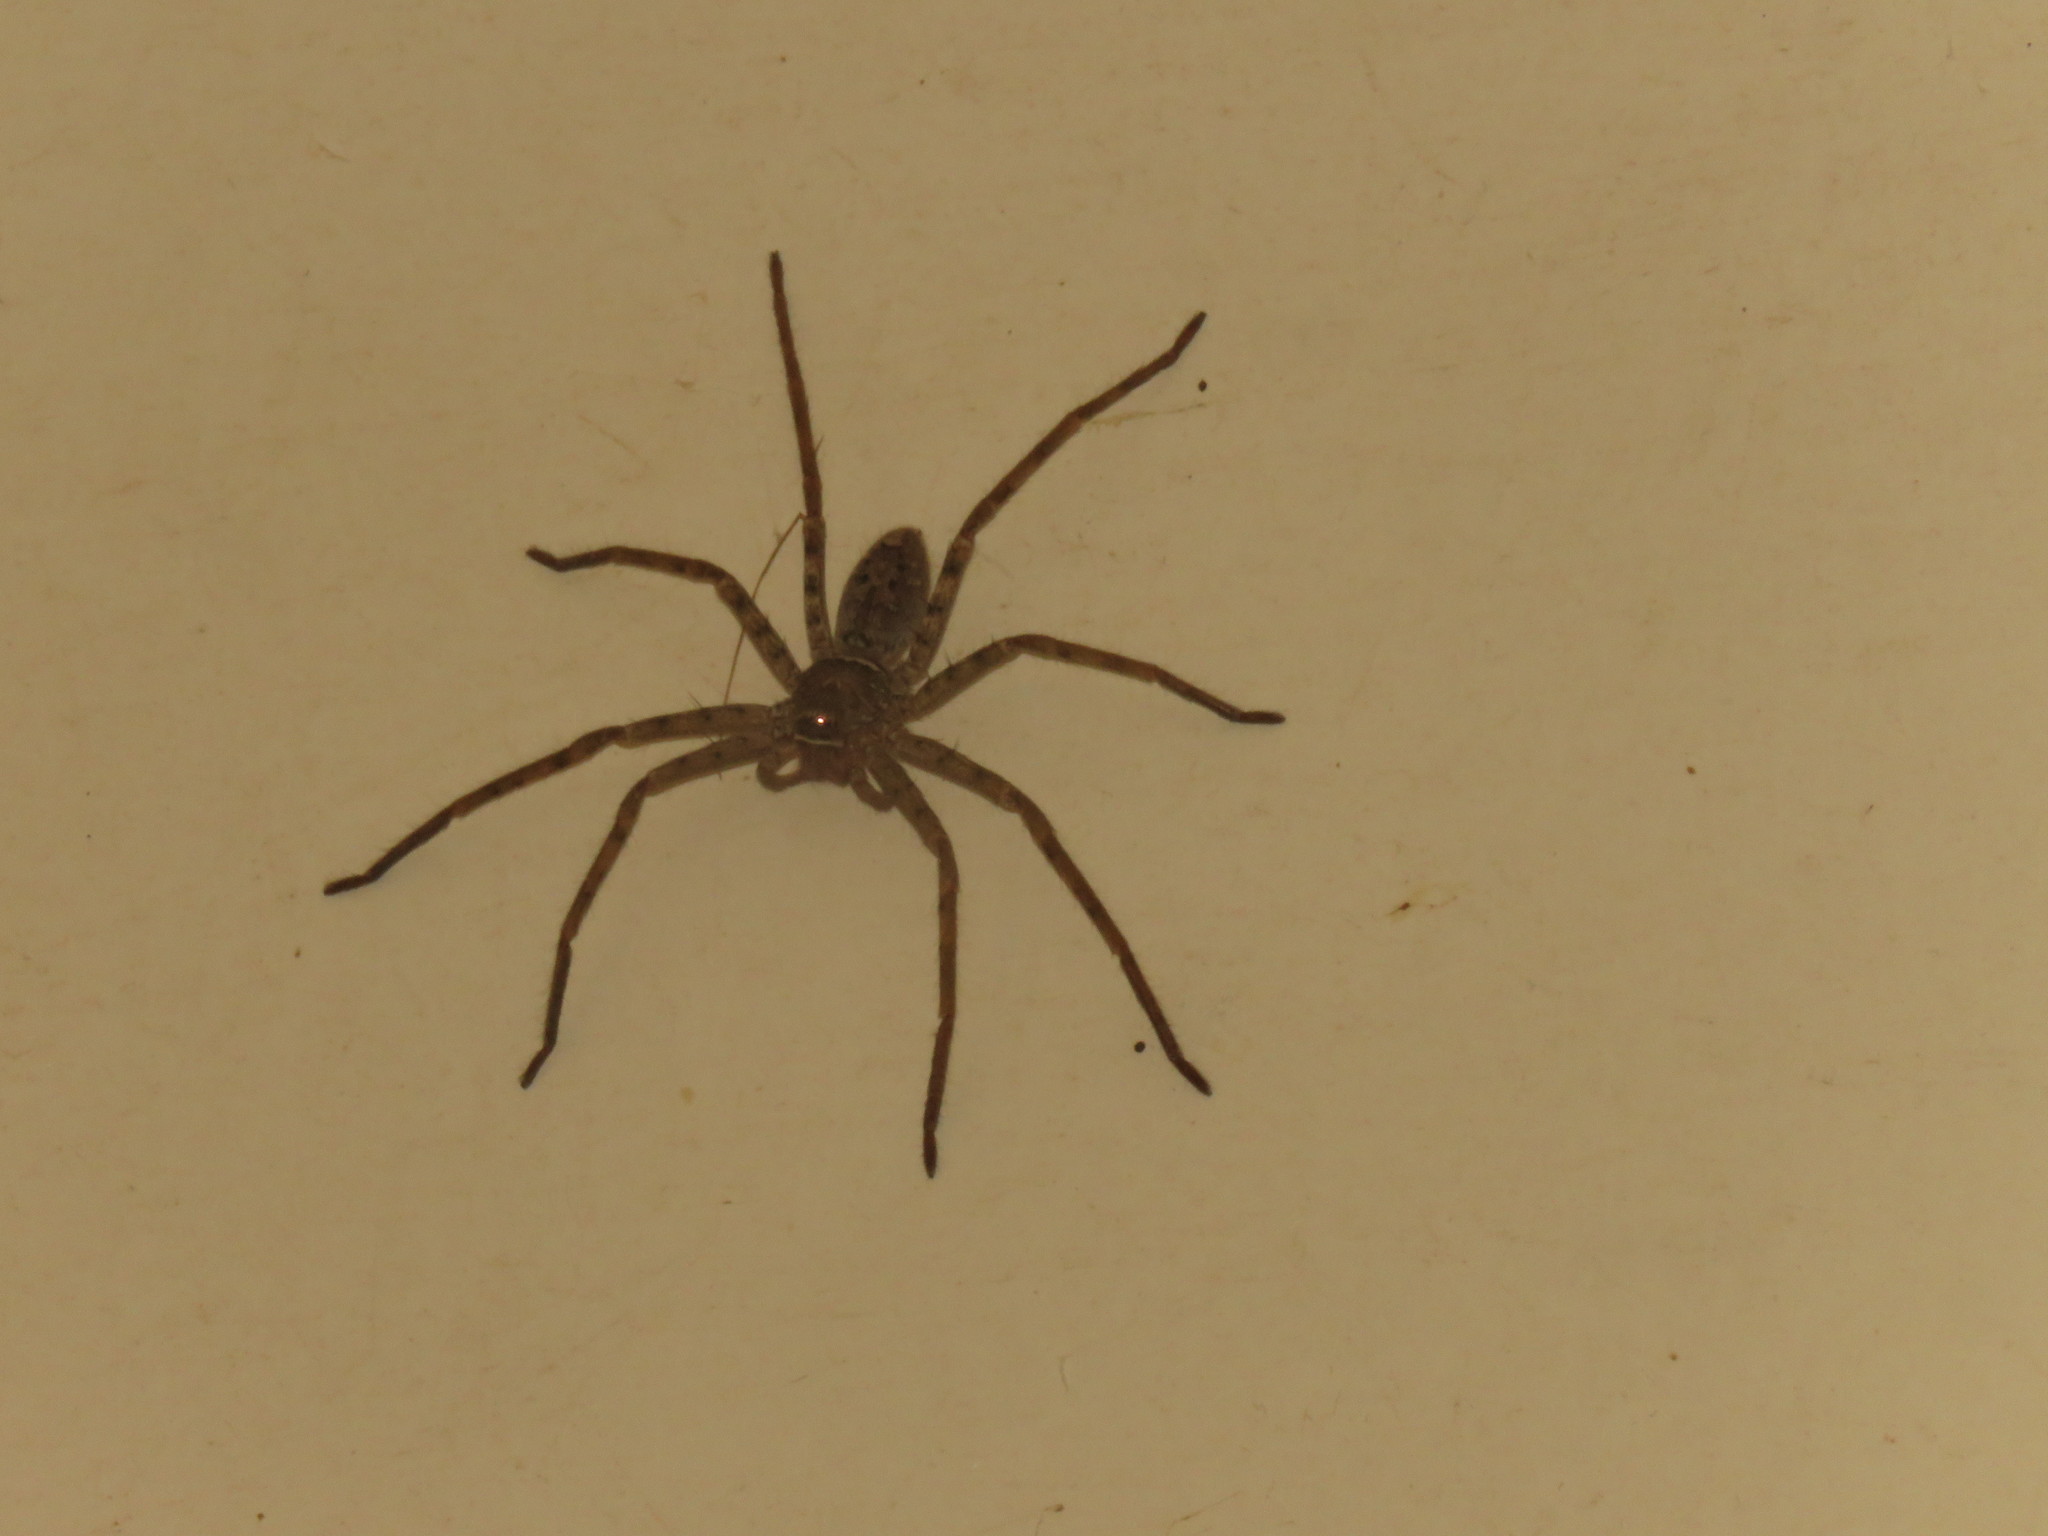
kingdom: Animalia
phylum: Arthropoda
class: Arachnida
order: Araneae
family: Sparassidae
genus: Heteropoda
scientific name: Heteropoda venatoria
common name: Huntsman spider
